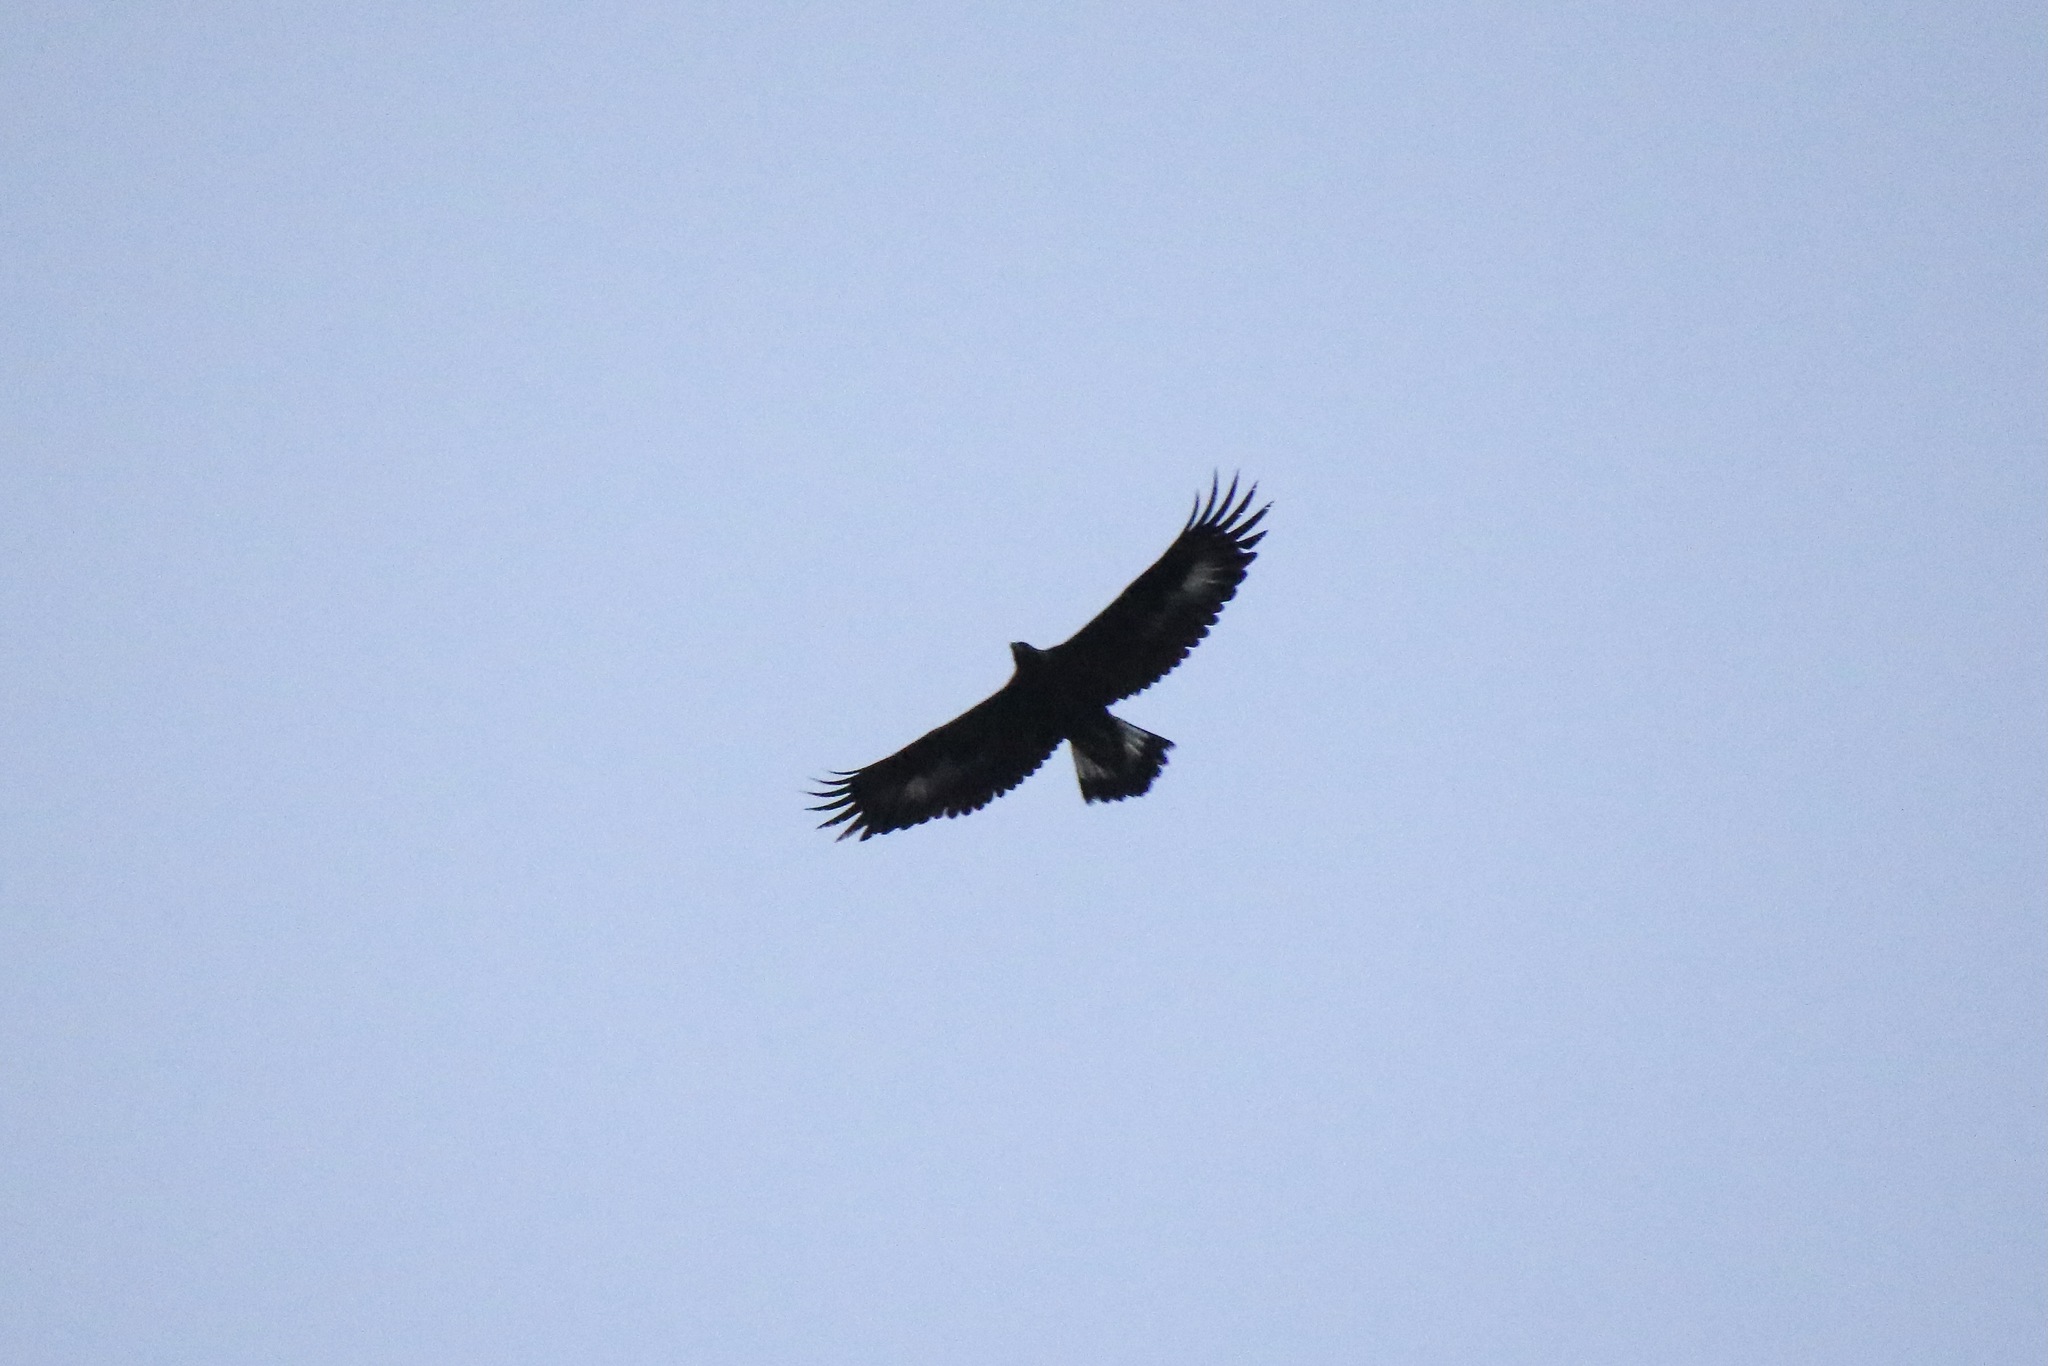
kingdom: Animalia
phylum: Chordata
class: Aves
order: Accipitriformes
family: Accipitridae
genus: Aquila
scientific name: Aquila chrysaetos
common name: Golden eagle
